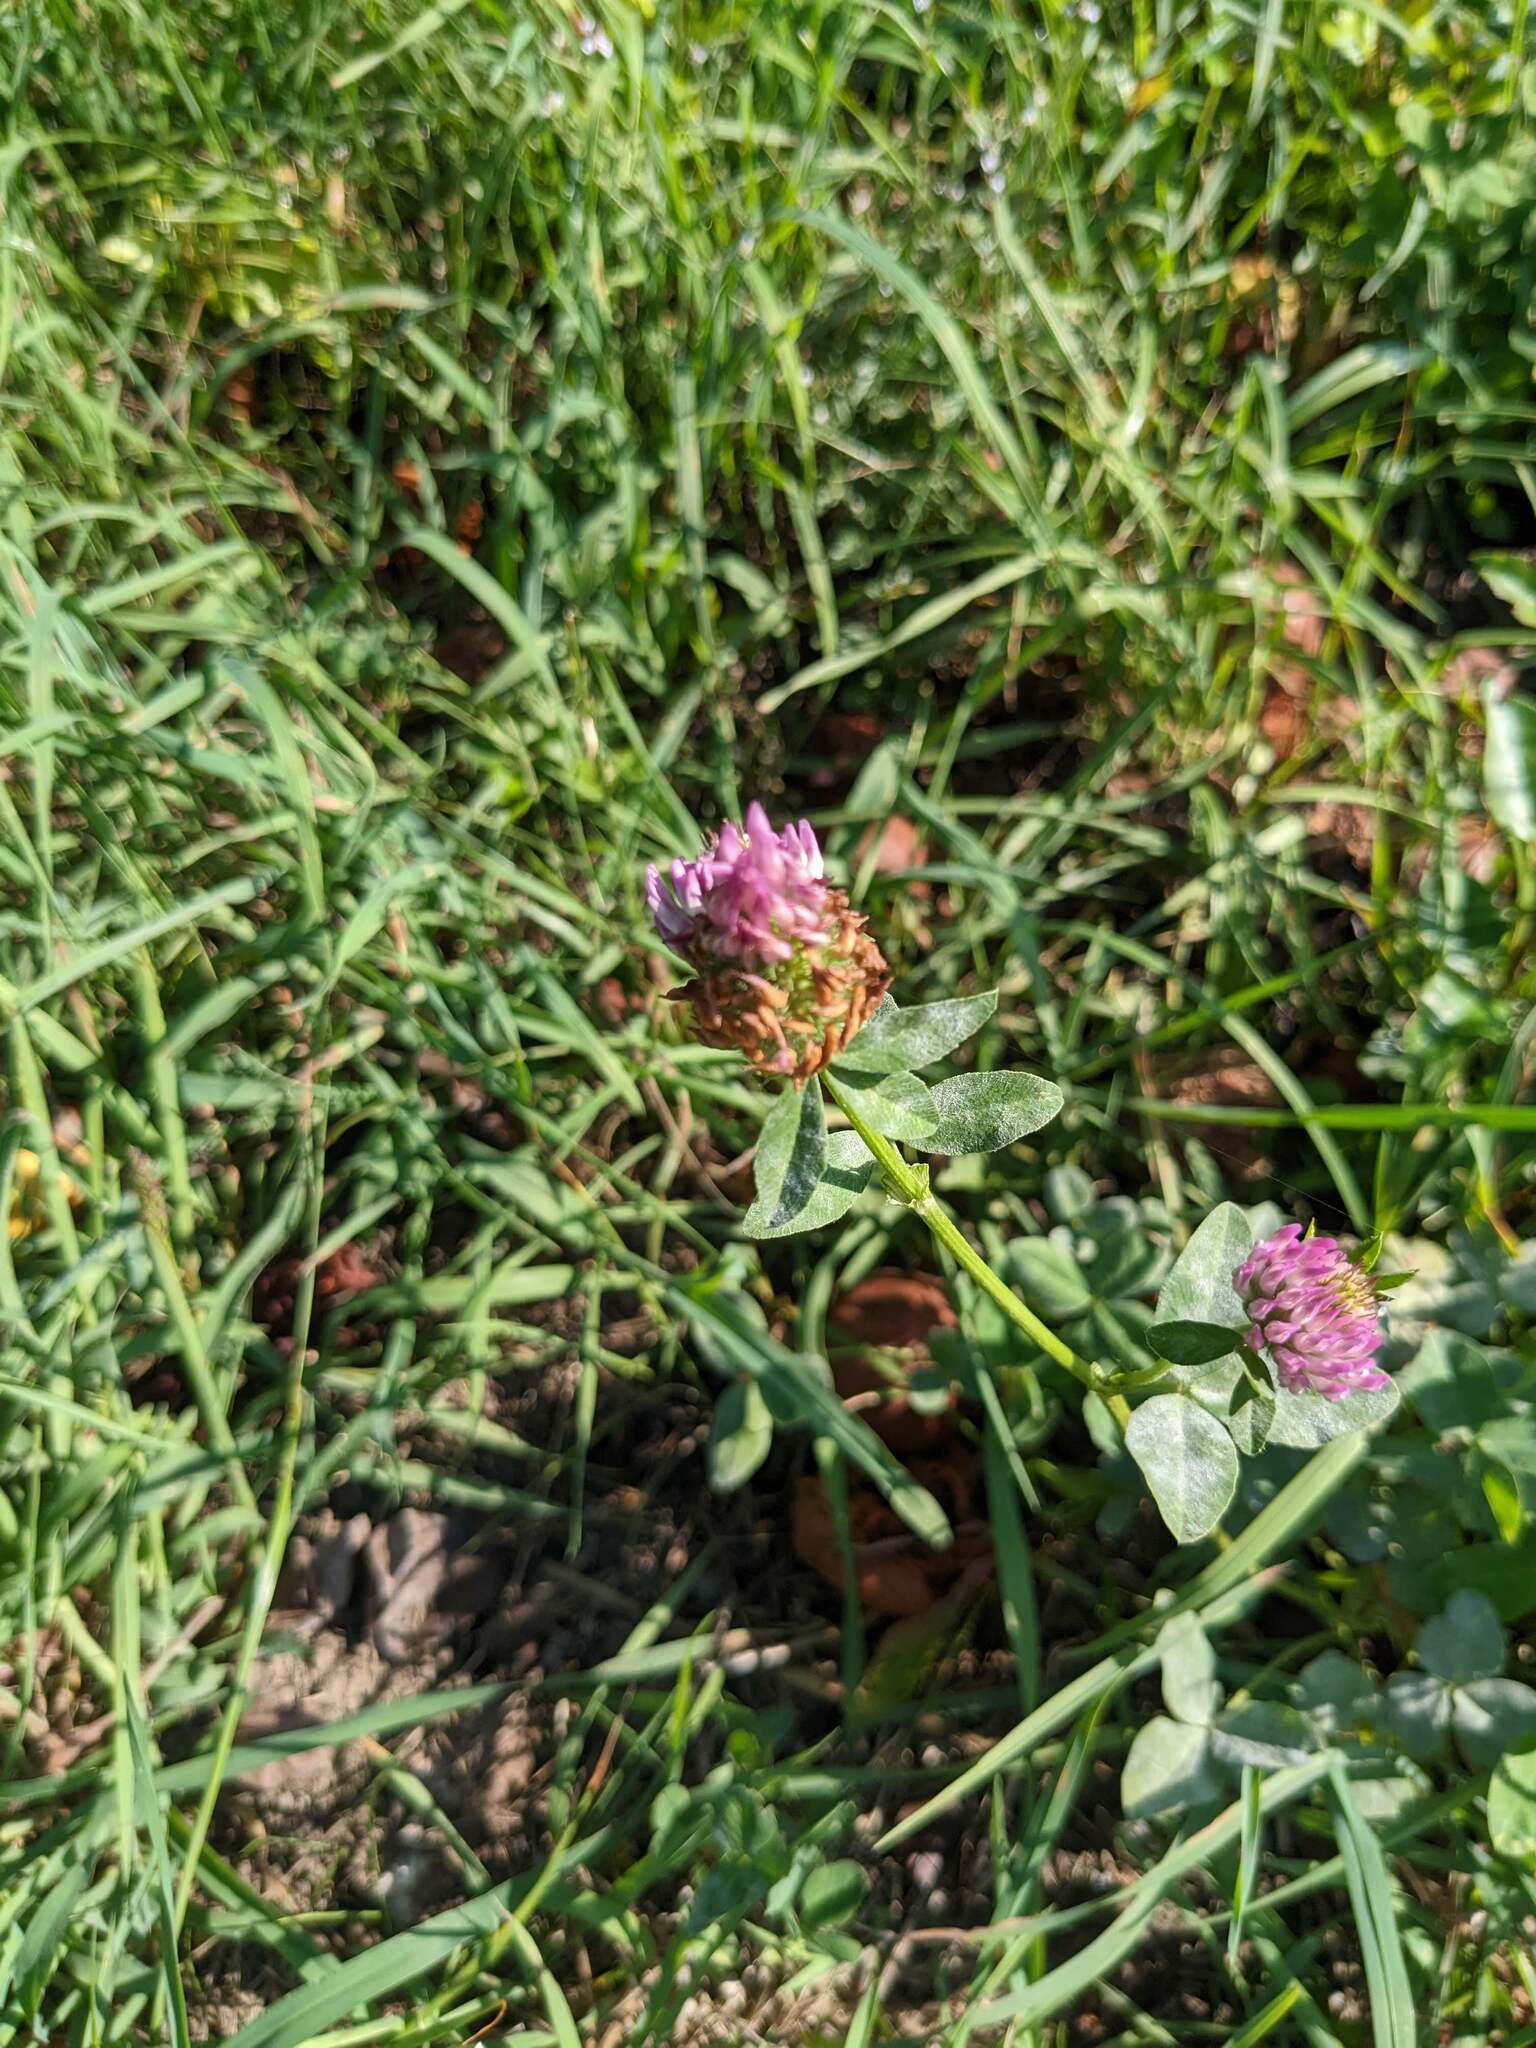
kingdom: Plantae
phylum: Tracheophyta
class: Magnoliopsida
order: Fabales
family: Fabaceae
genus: Trifolium
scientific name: Trifolium pratense
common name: Red clover
